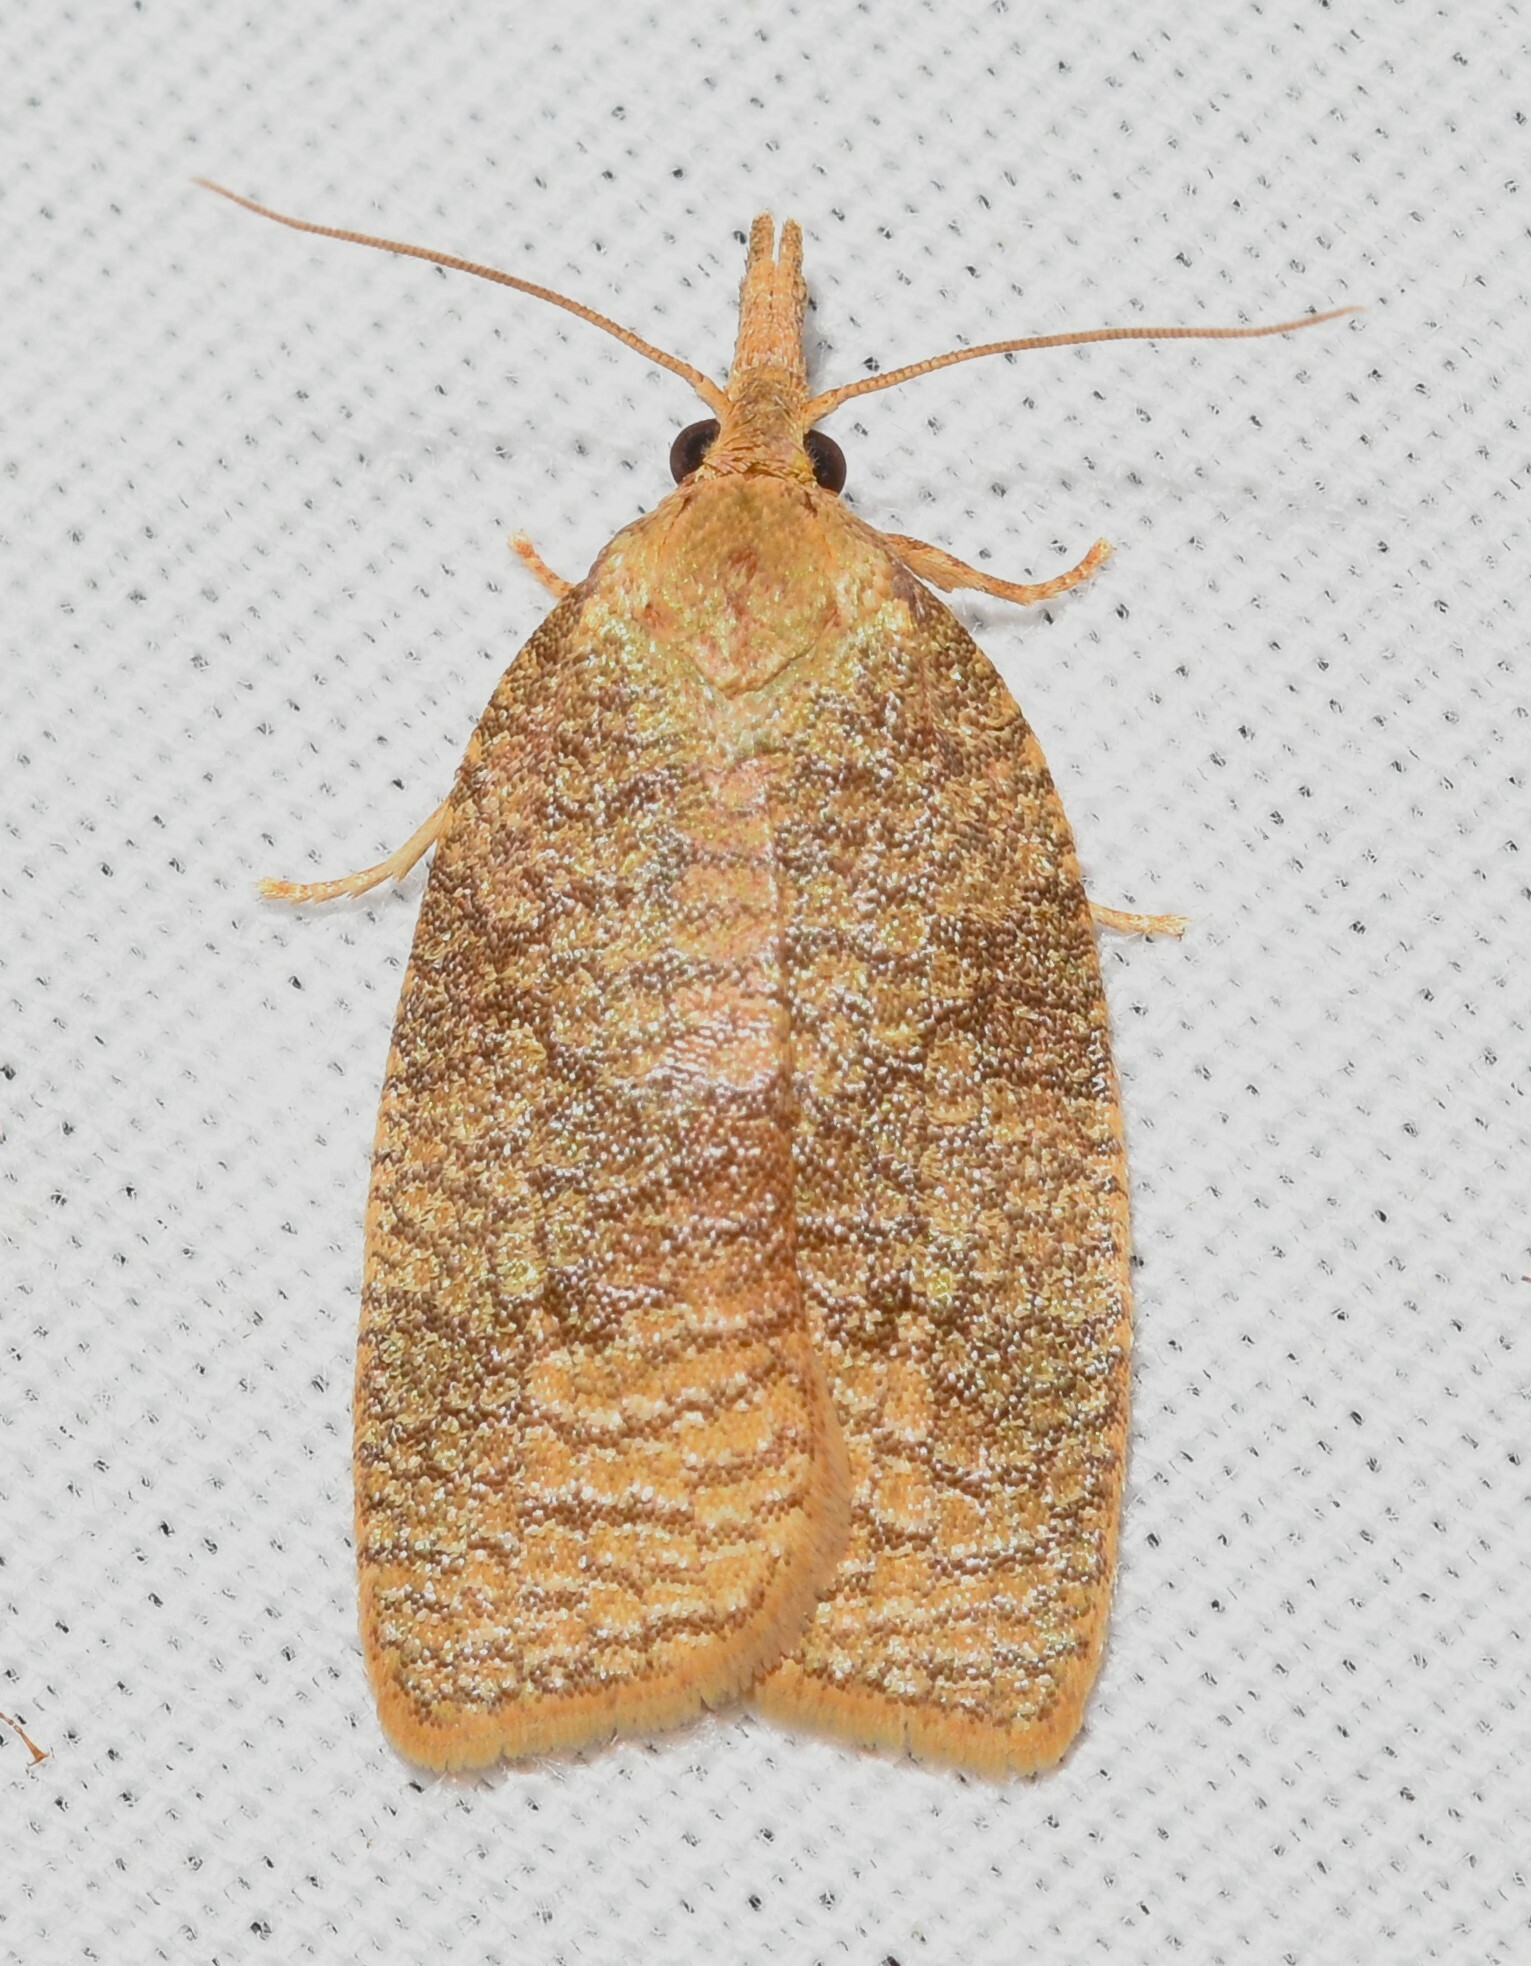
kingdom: Animalia
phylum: Arthropoda
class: Insecta
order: Lepidoptera
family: Tortricidae
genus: Cenopis
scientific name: Cenopis saracana
